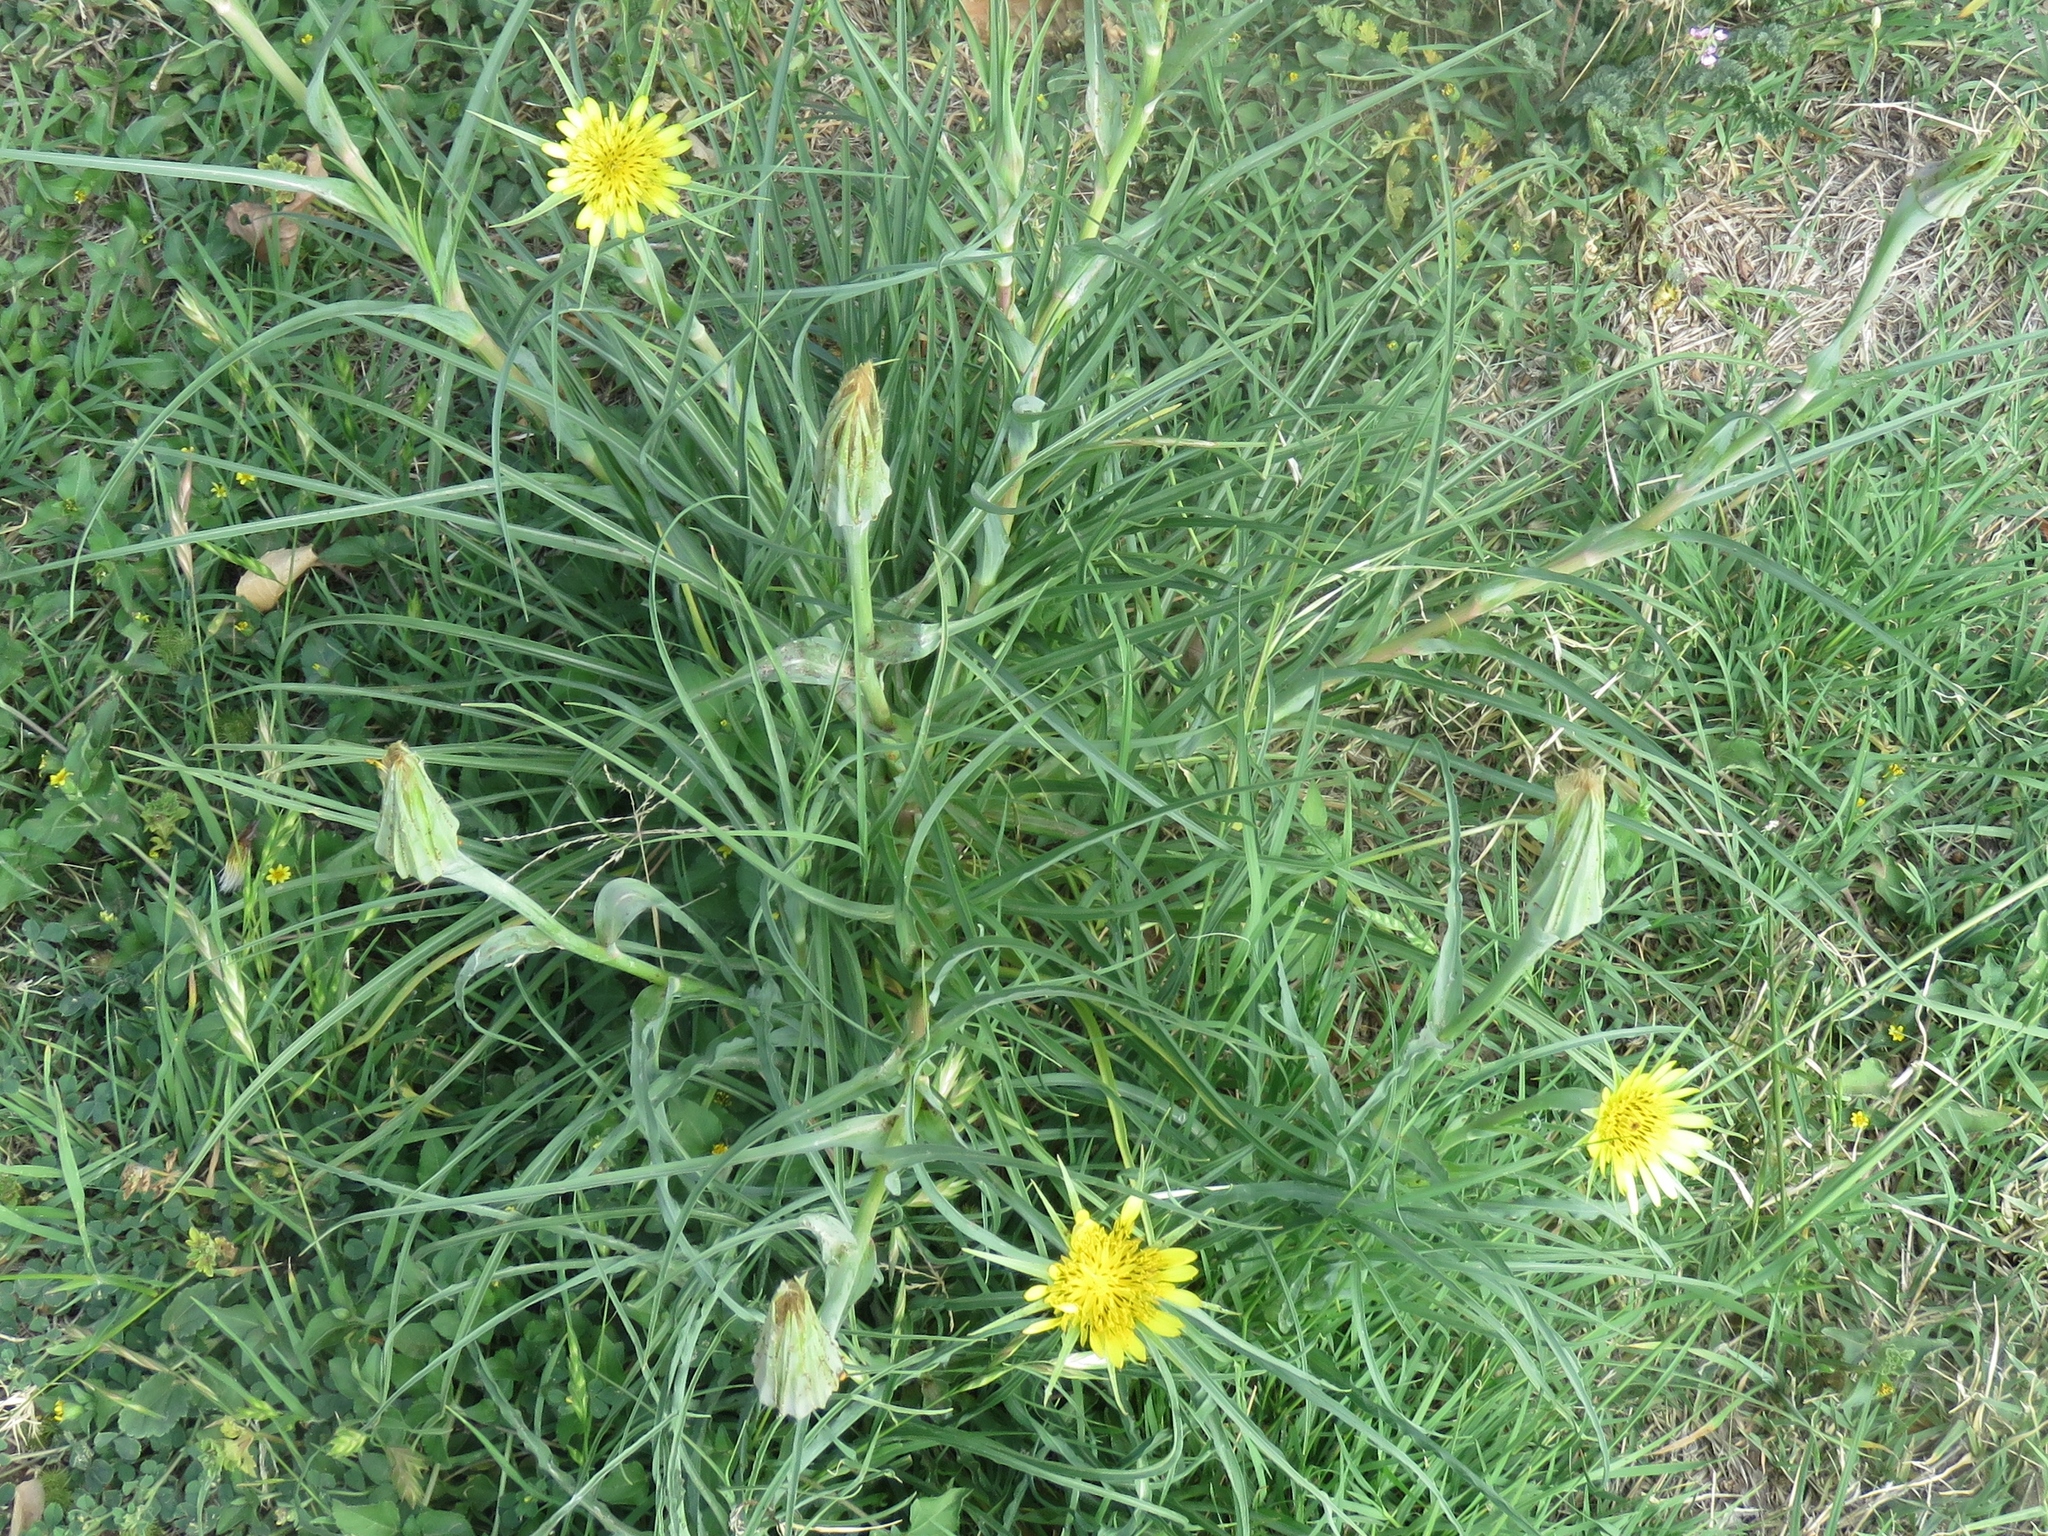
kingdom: Plantae
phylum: Tracheophyta
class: Magnoliopsida
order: Asterales
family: Asteraceae
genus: Tragopogon
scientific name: Tragopogon dubius
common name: Yellow salsify
